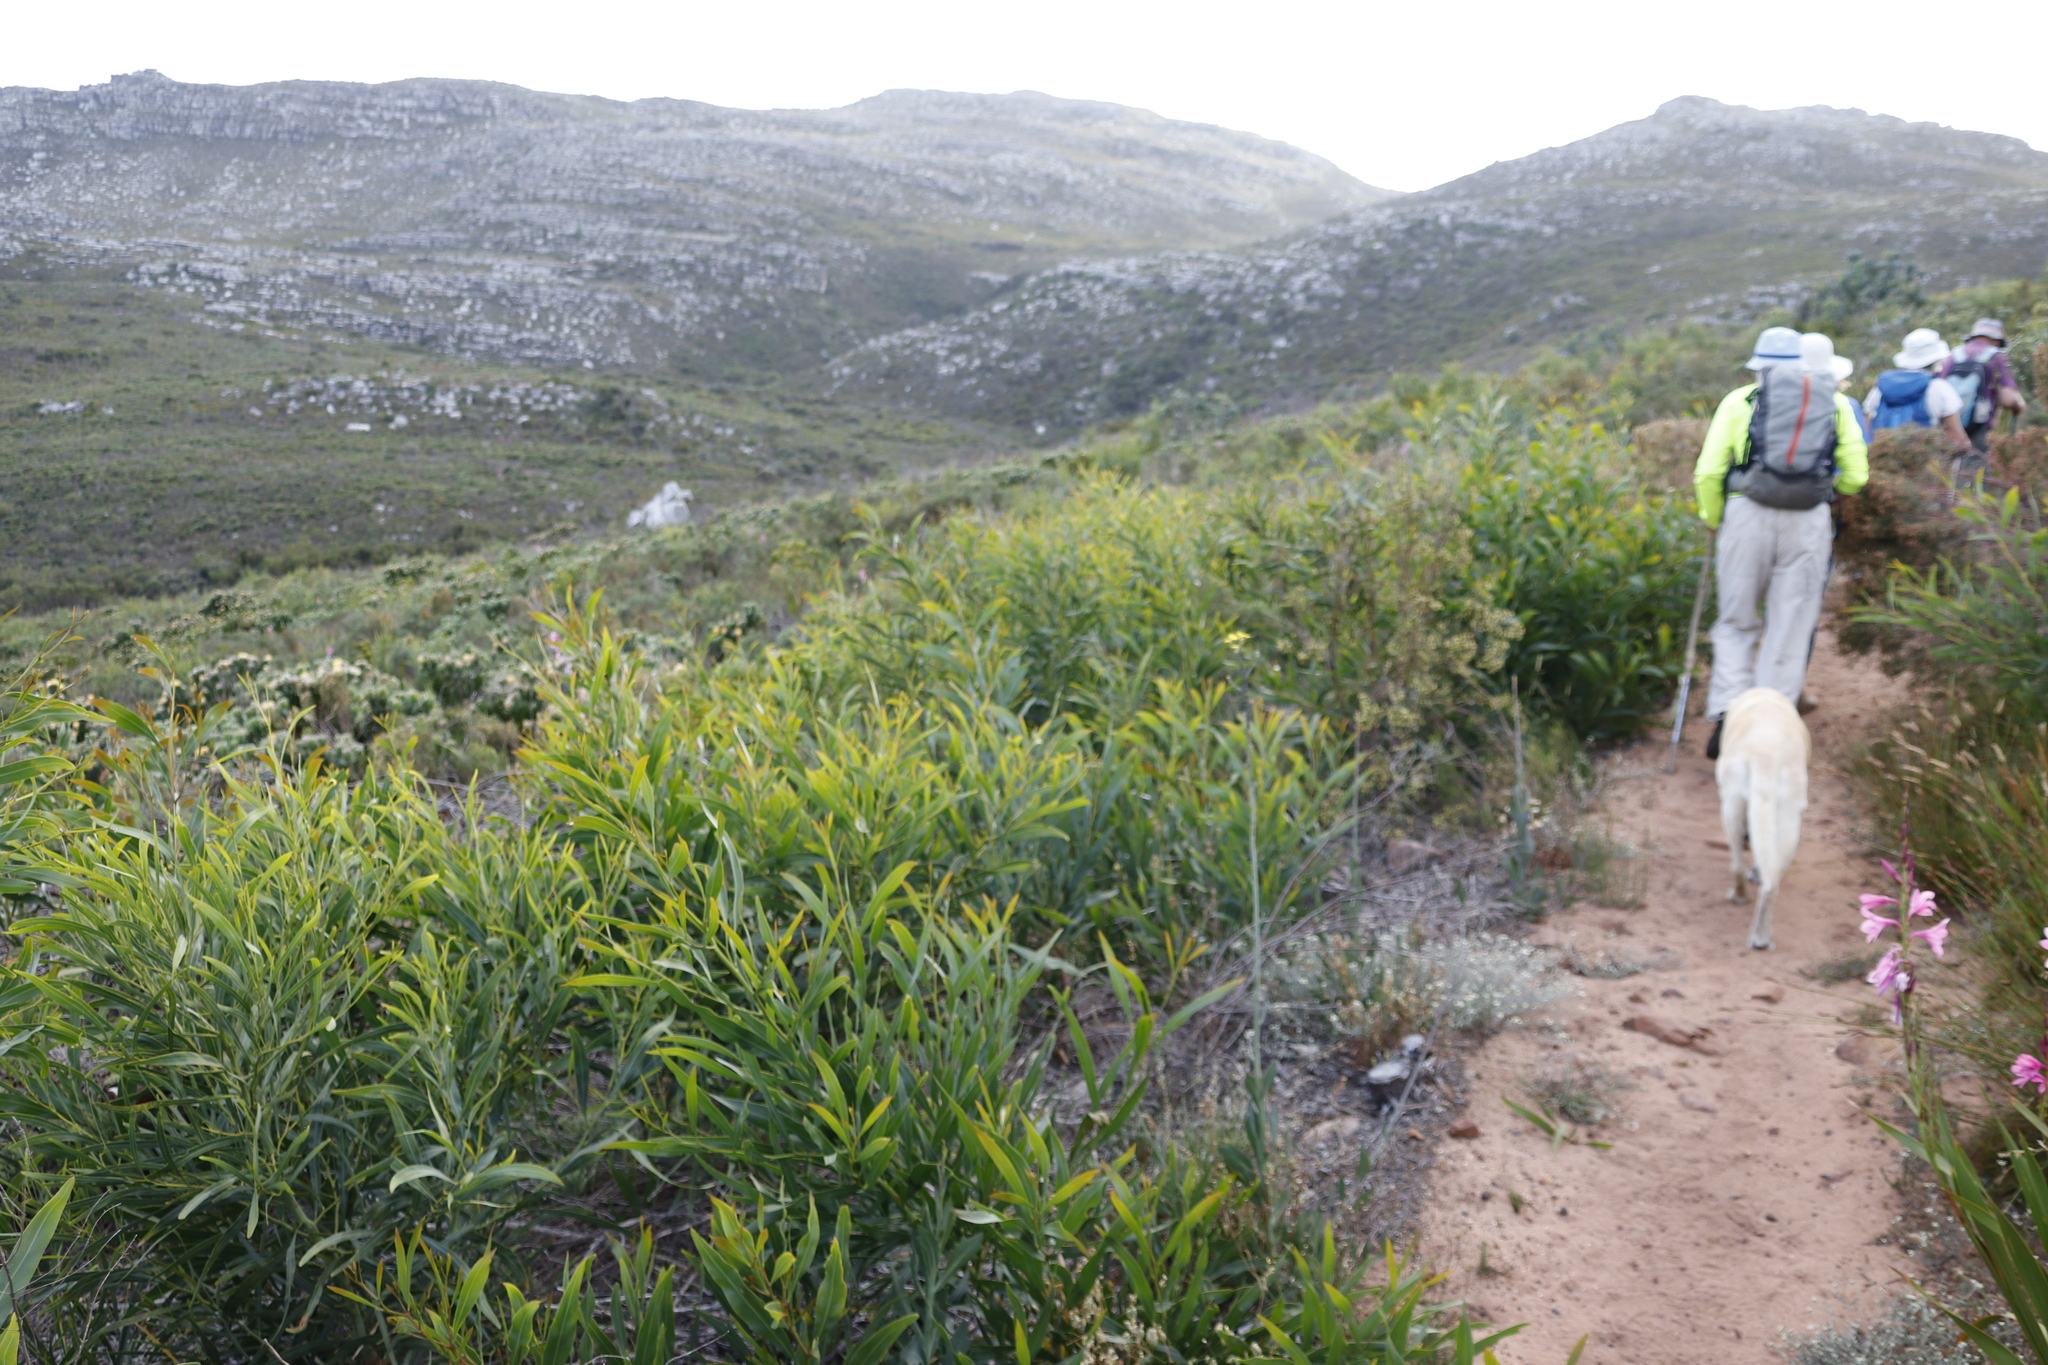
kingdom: Plantae
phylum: Tracheophyta
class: Magnoliopsida
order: Fabales
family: Fabaceae
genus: Acacia
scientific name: Acacia saligna
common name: Orange wattle
